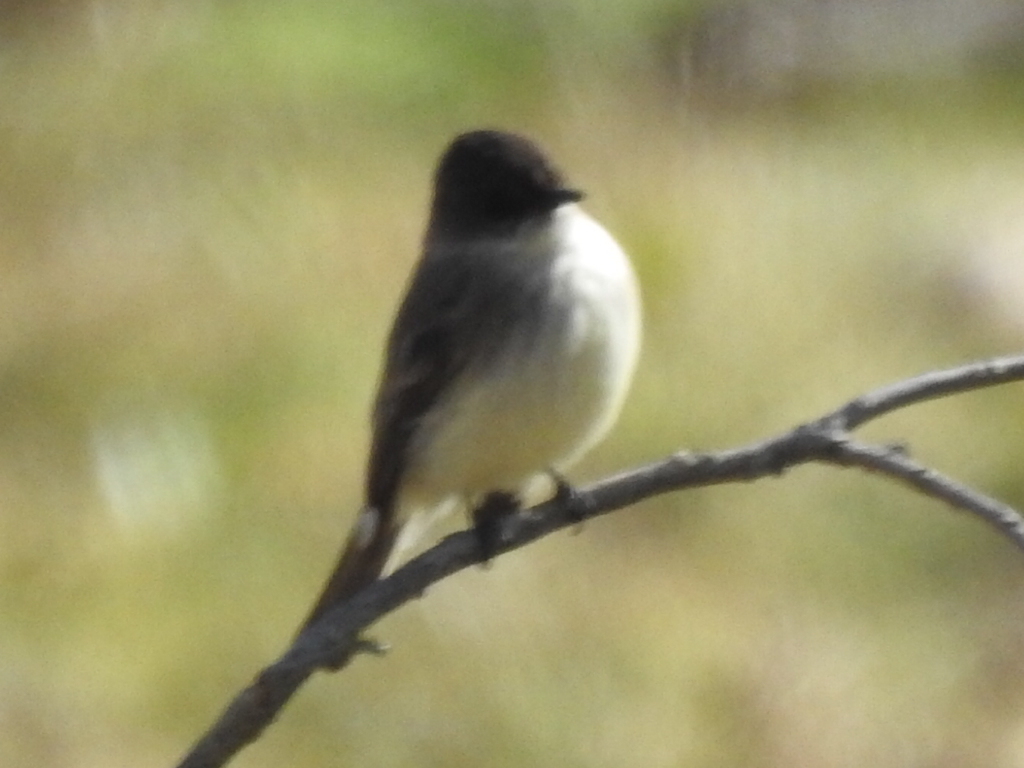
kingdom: Animalia
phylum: Chordata
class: Aves
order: Passeriformes
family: Tyrannidae
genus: Sayornis
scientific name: Sayornis phoebe
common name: Eastern phoebe
